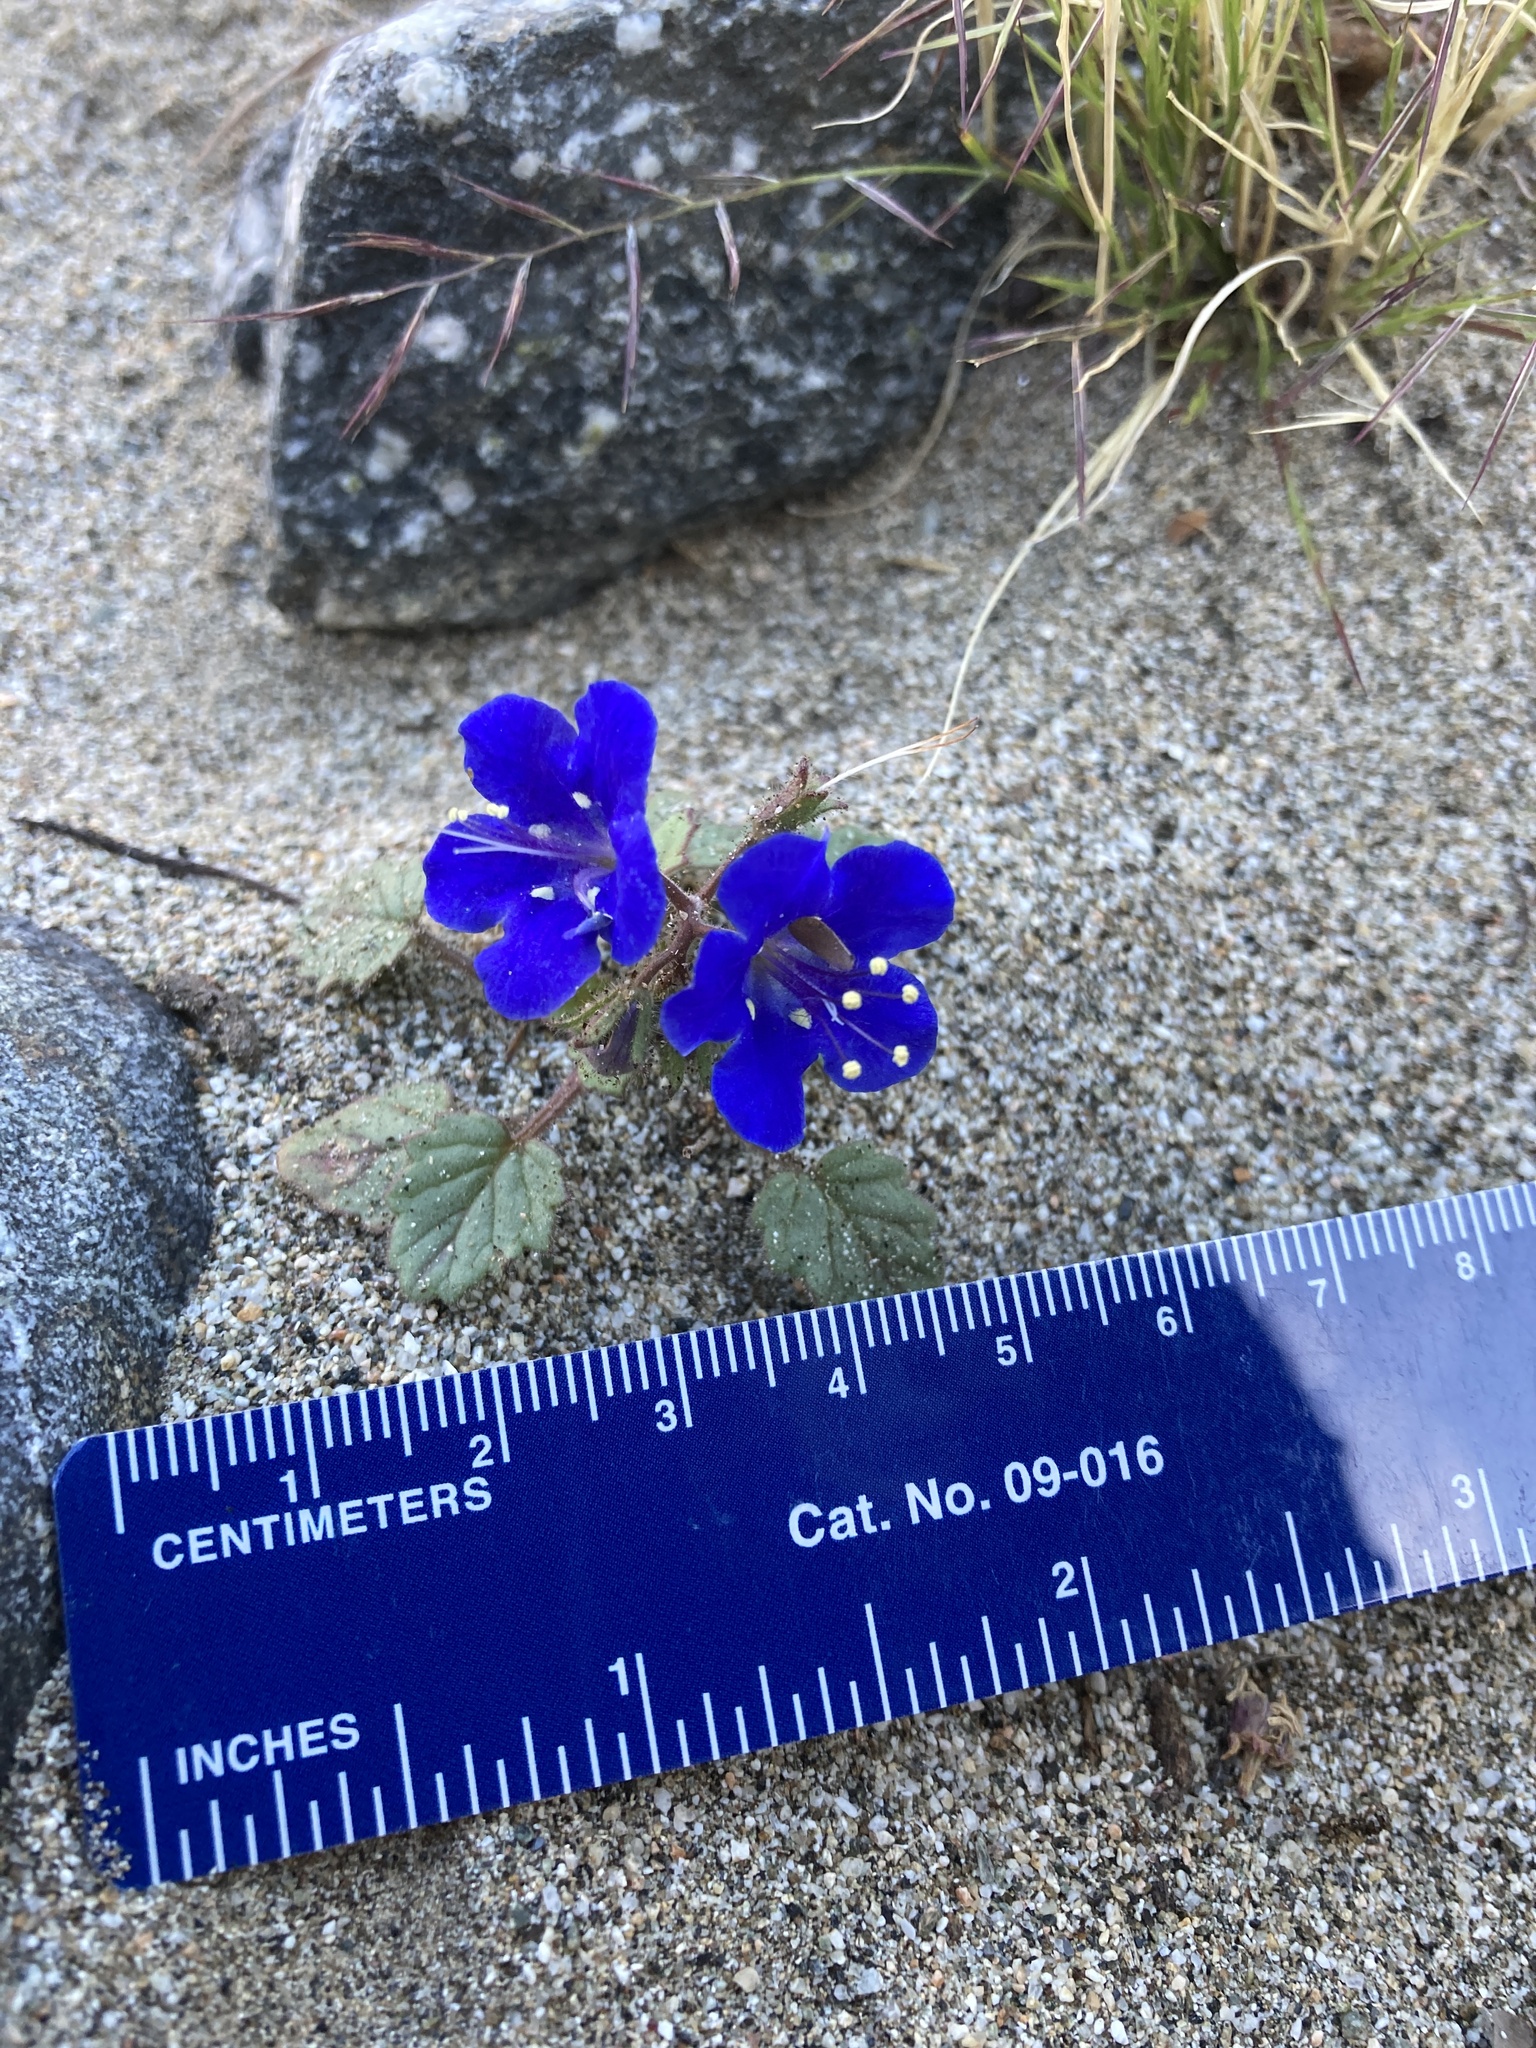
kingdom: Plantae
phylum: Tracheophyta
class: Magnoliopsida
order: Boraginales
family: Hydrophyllaceae
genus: Phacelia
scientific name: Phacelia campanularia
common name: California bluebell
